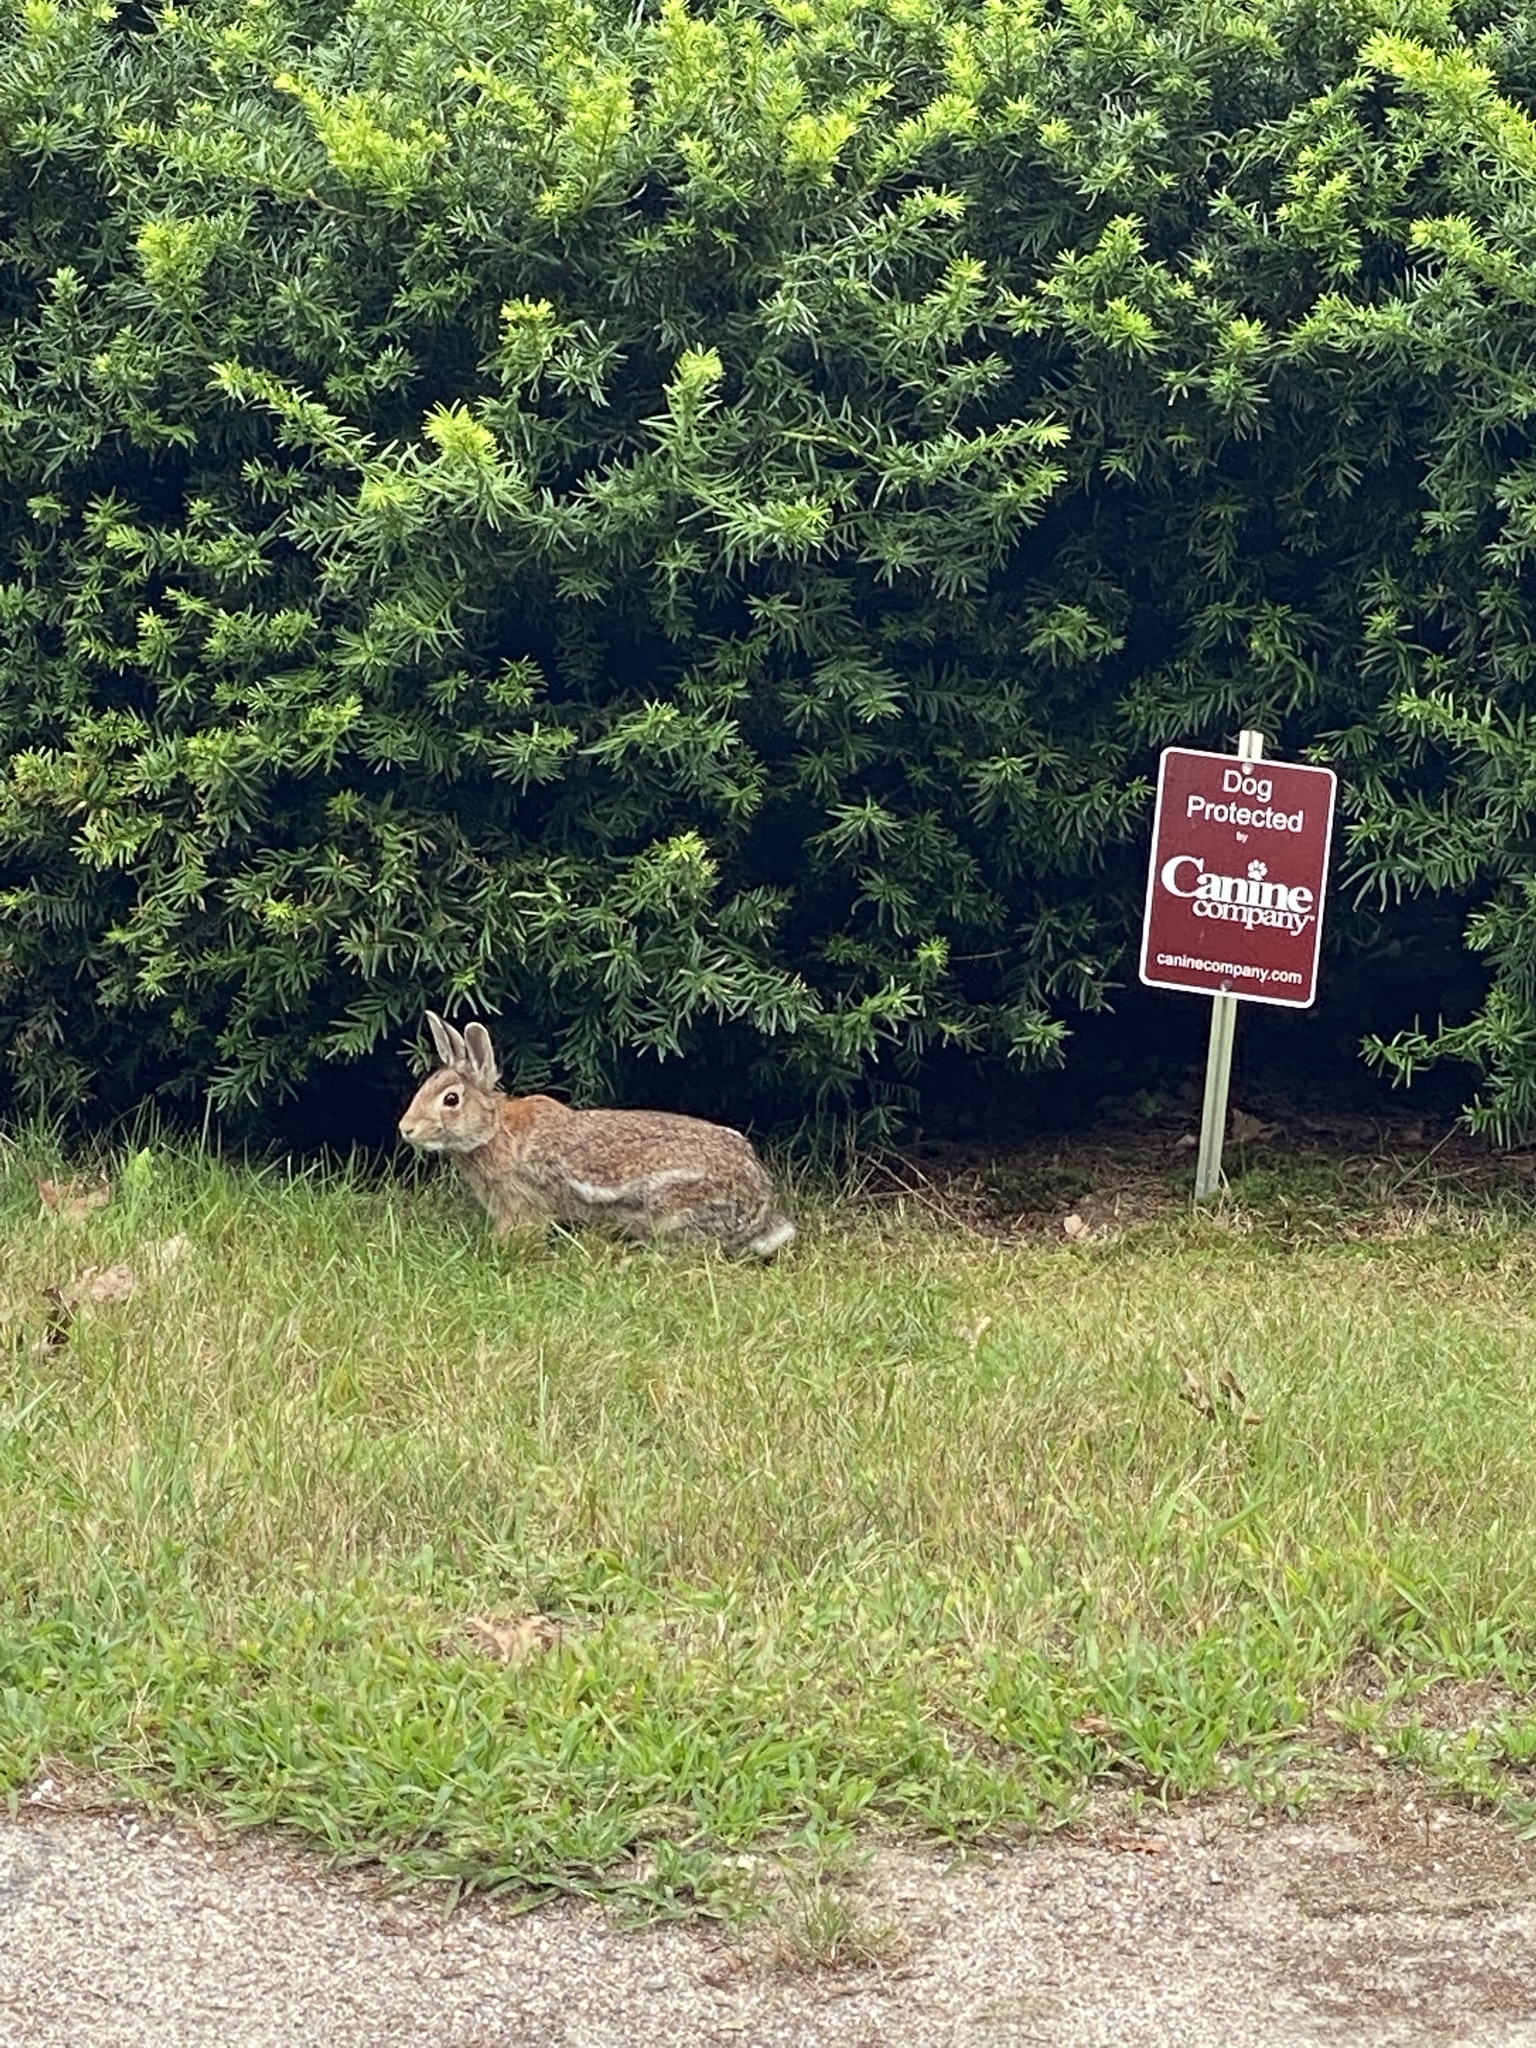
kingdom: Animalia
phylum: Chordata
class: Mammalia
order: Lagomorpha
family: Leporidae
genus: Sylvilagus
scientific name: Sylvilagus floridanus
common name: Eastern cottontail
